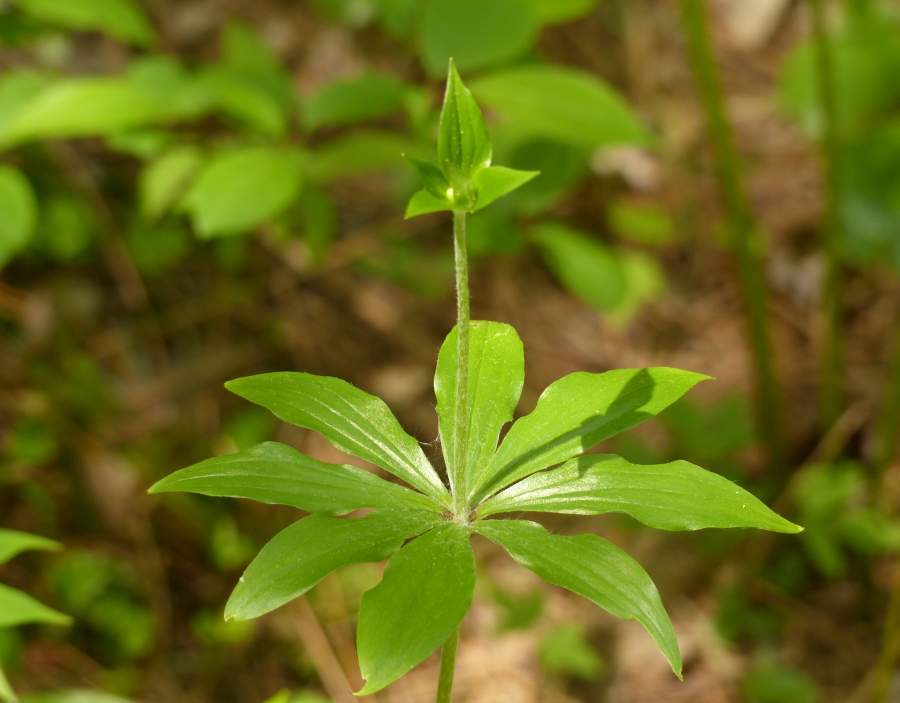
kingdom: Plantae
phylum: Tracheophyta
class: Liliopsida
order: Liliales
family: Liliaceae
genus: Medeola
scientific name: Medeola virginiana
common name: Indian cucumber-root
